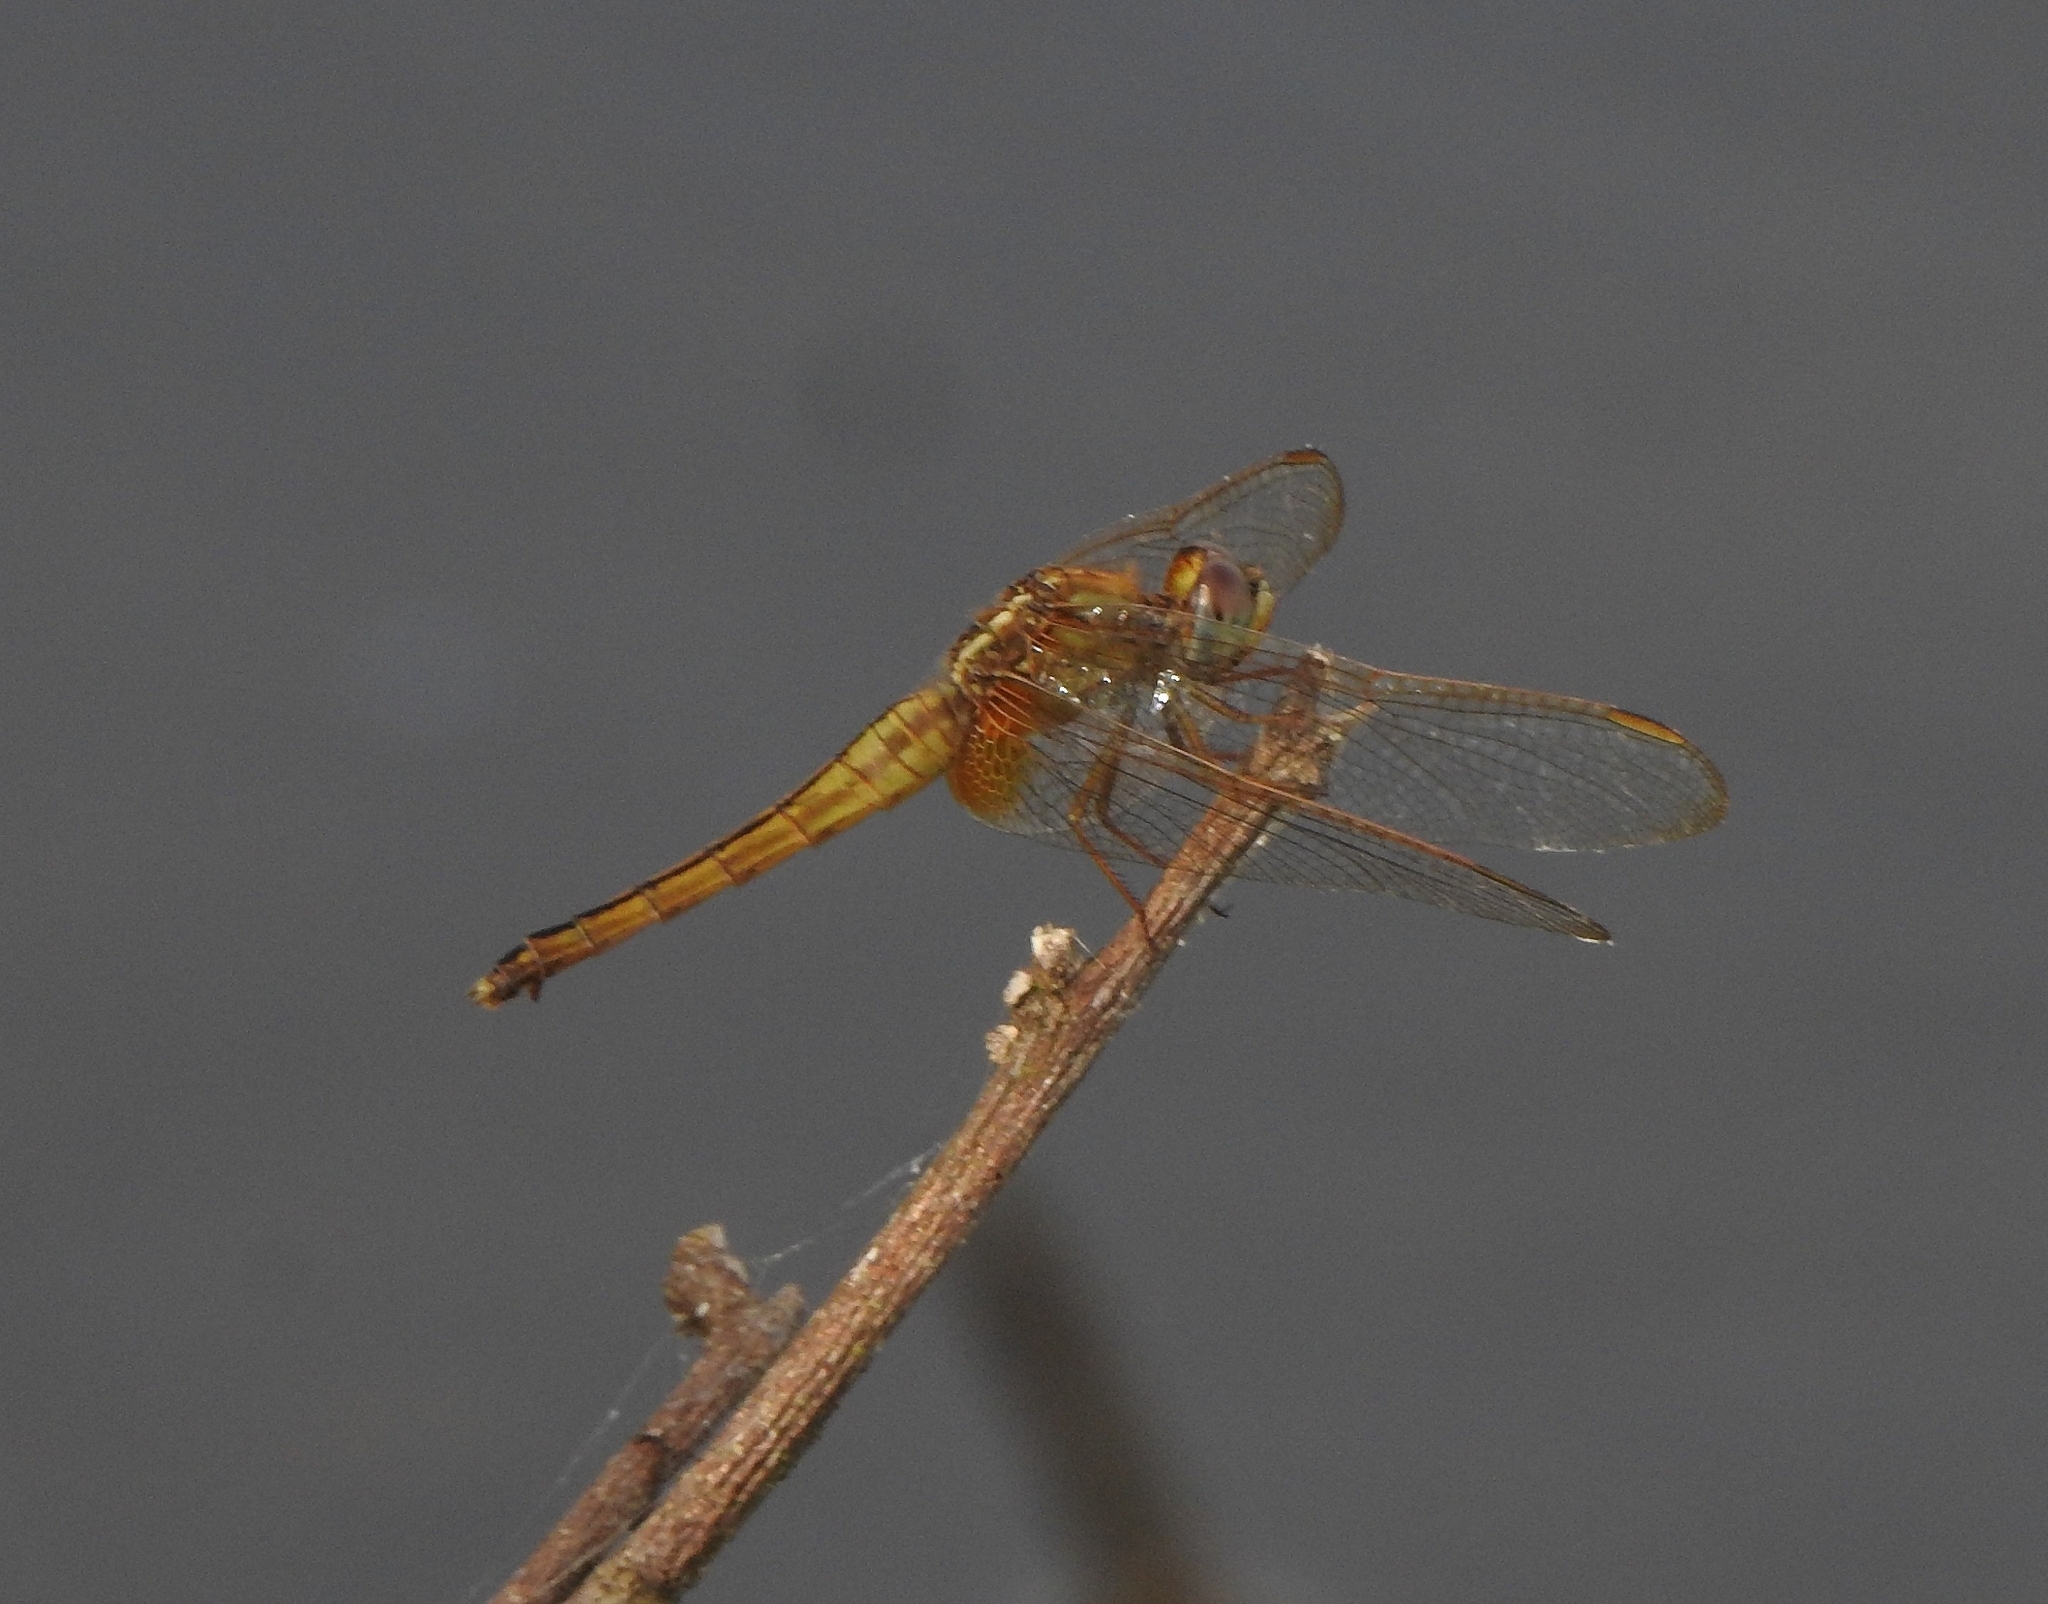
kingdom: Animalia
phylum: Arthropoda
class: Insecta
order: Odonata
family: Libellulidae
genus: Crocothemis
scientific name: Crocothemis servilia
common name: Scarlet skimmer
